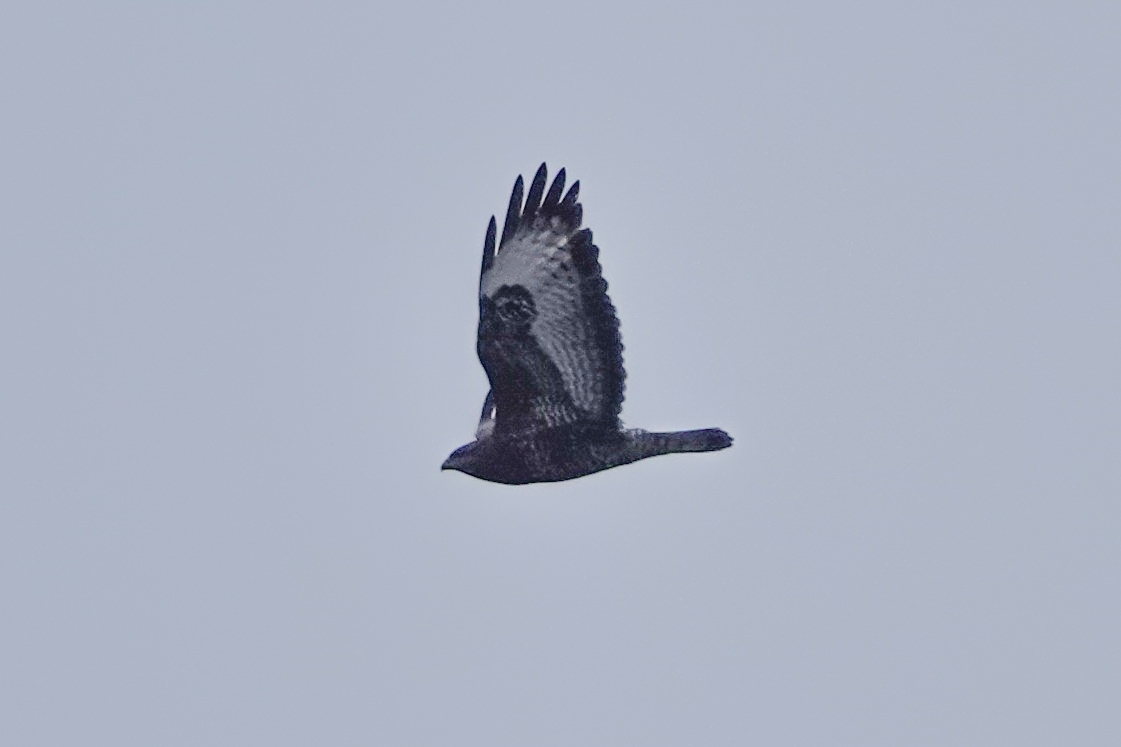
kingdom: Animalia
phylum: Chordata
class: Aves
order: Accipitriformes
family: Accipitridae
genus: Buteo
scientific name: Buteo buteo
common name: Common buzzard
